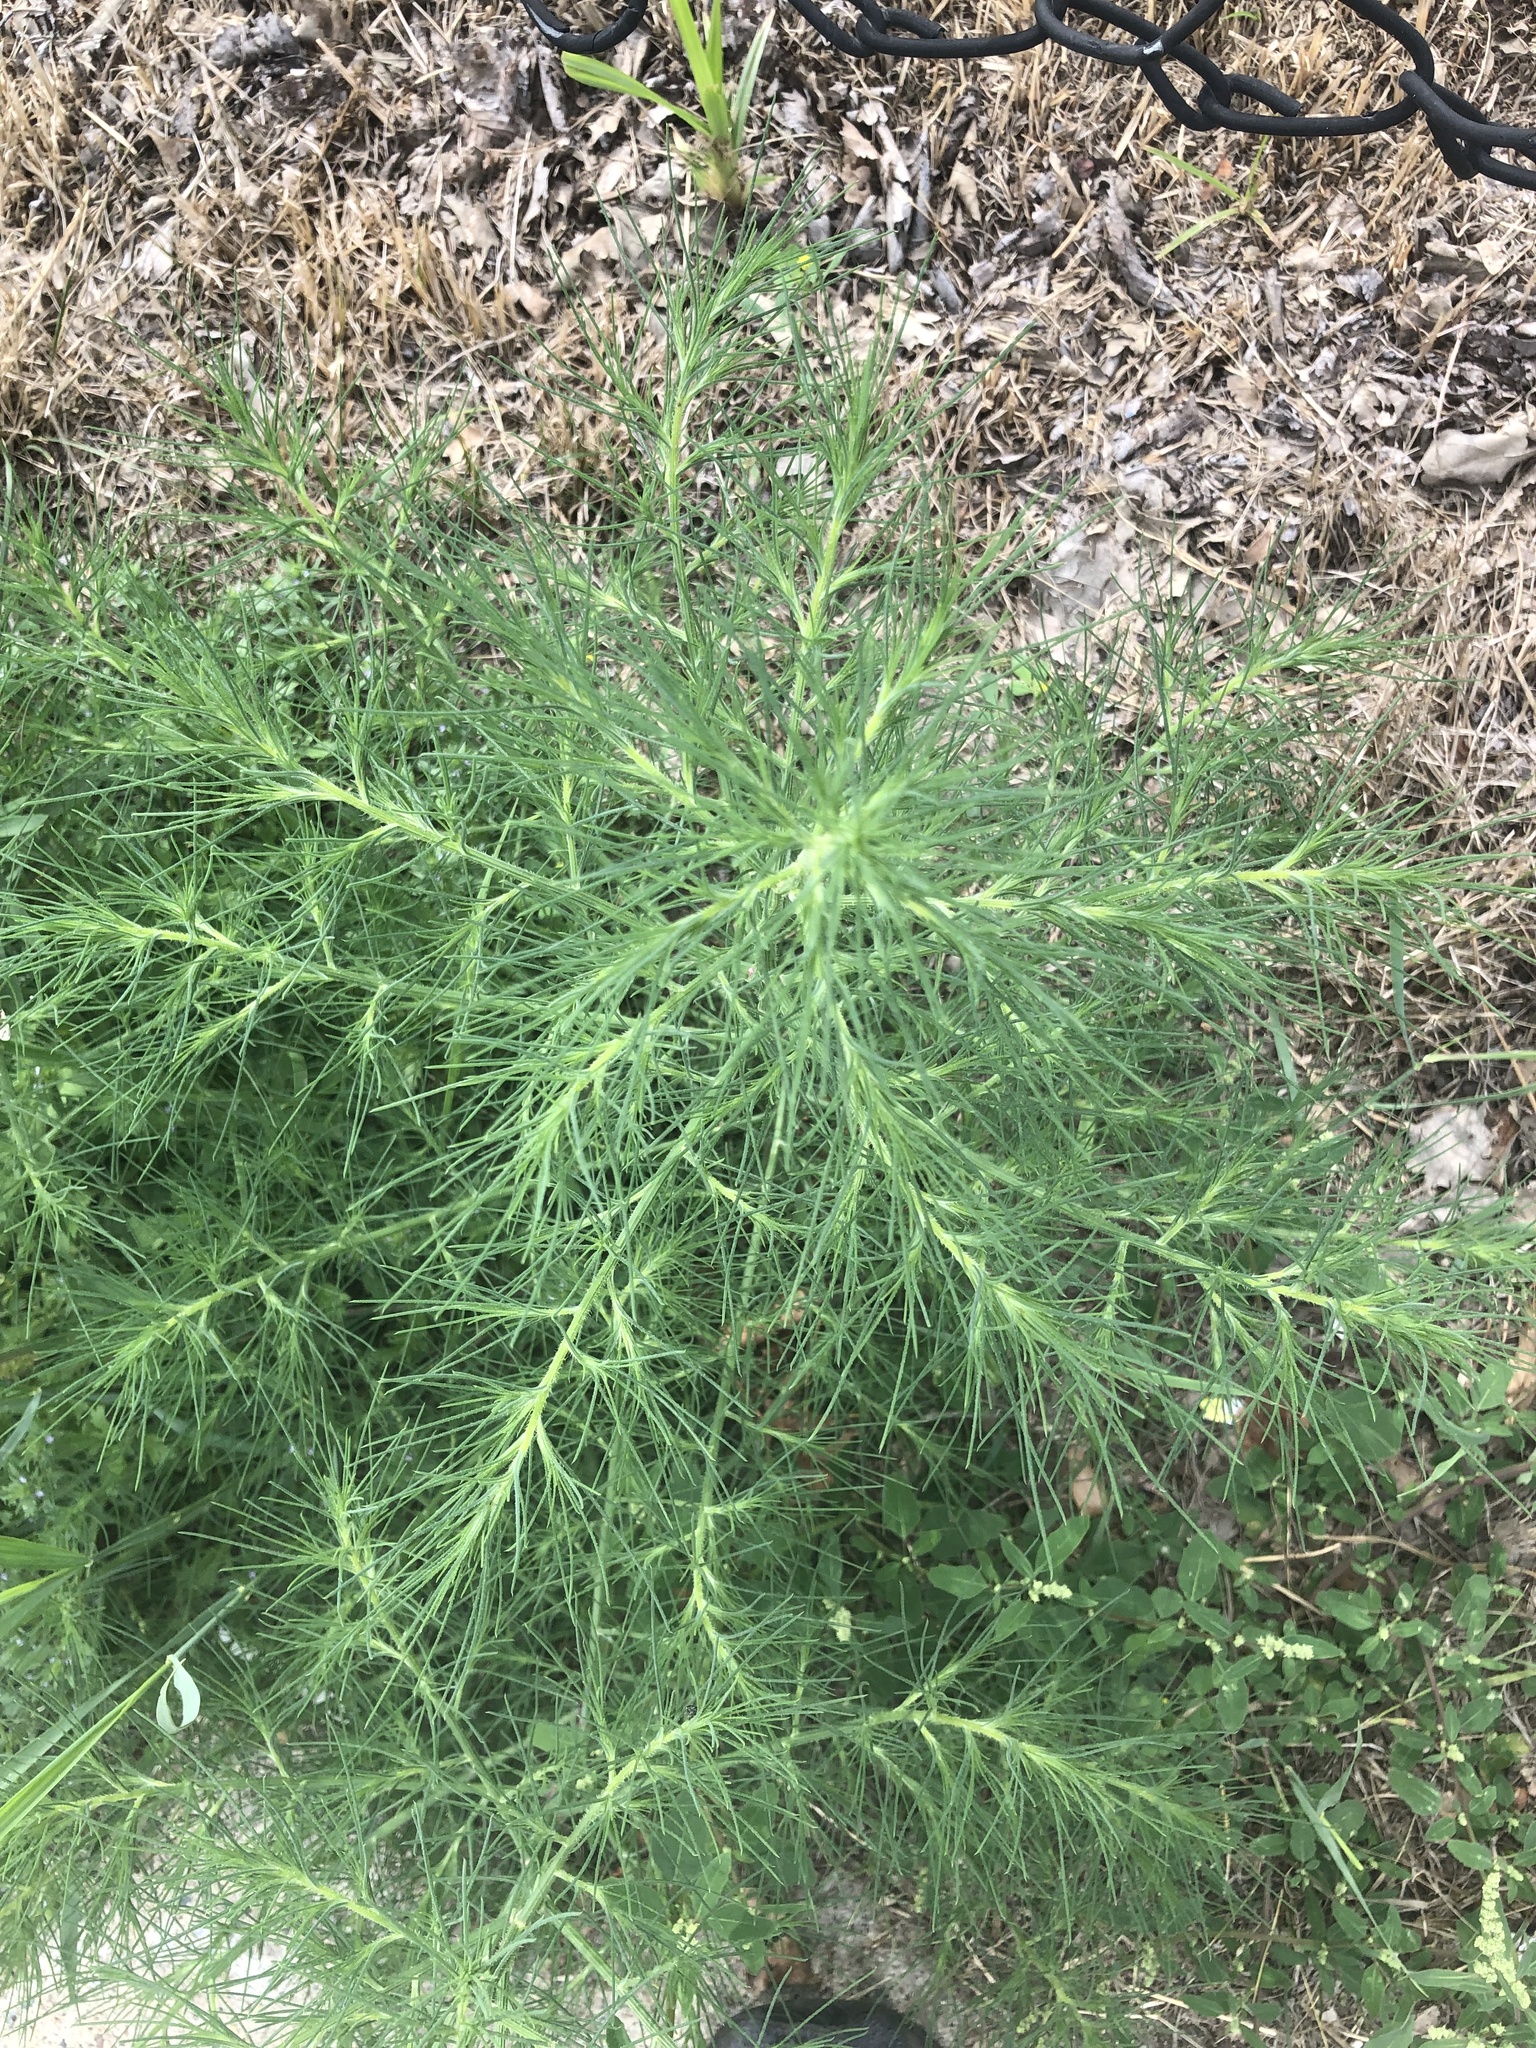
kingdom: Plantae
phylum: Tracheophyta
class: Magnoliopsida
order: Asterales
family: Asteraceae
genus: Eupatorium
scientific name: Eupatorium capillifolium
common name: Dog-fennel
